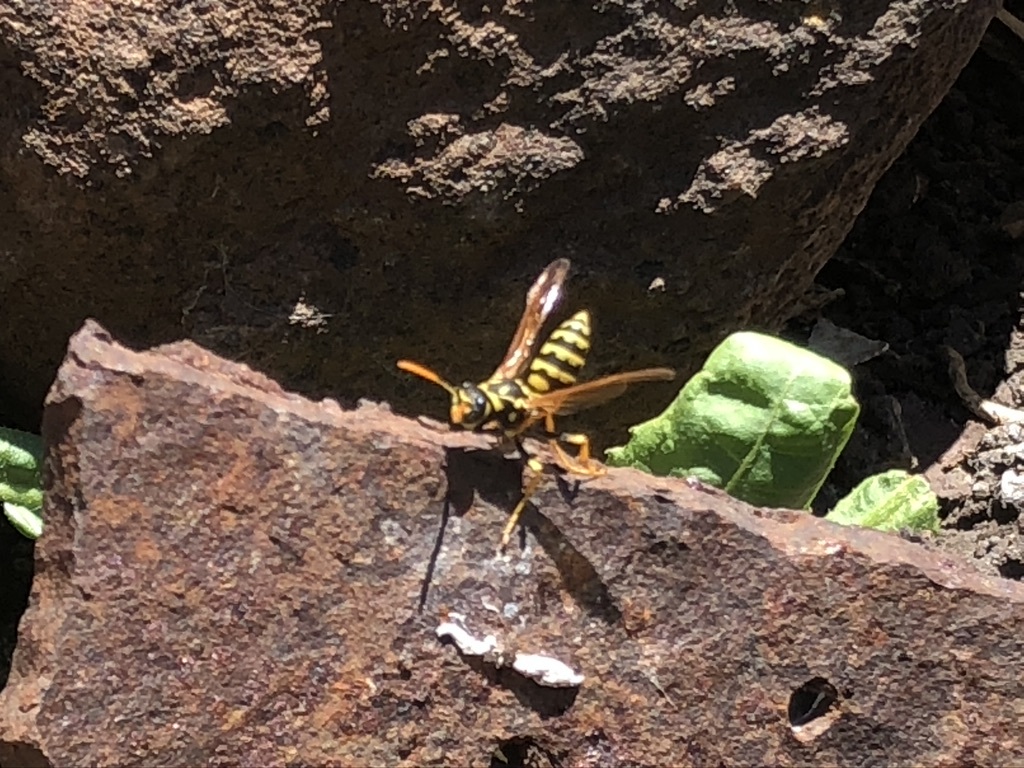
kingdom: Animalia
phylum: Arthropoda
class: Insecta
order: Hymenoptera
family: Eumenidae
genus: Polistes
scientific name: Polistes dominula
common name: Paper wasp
